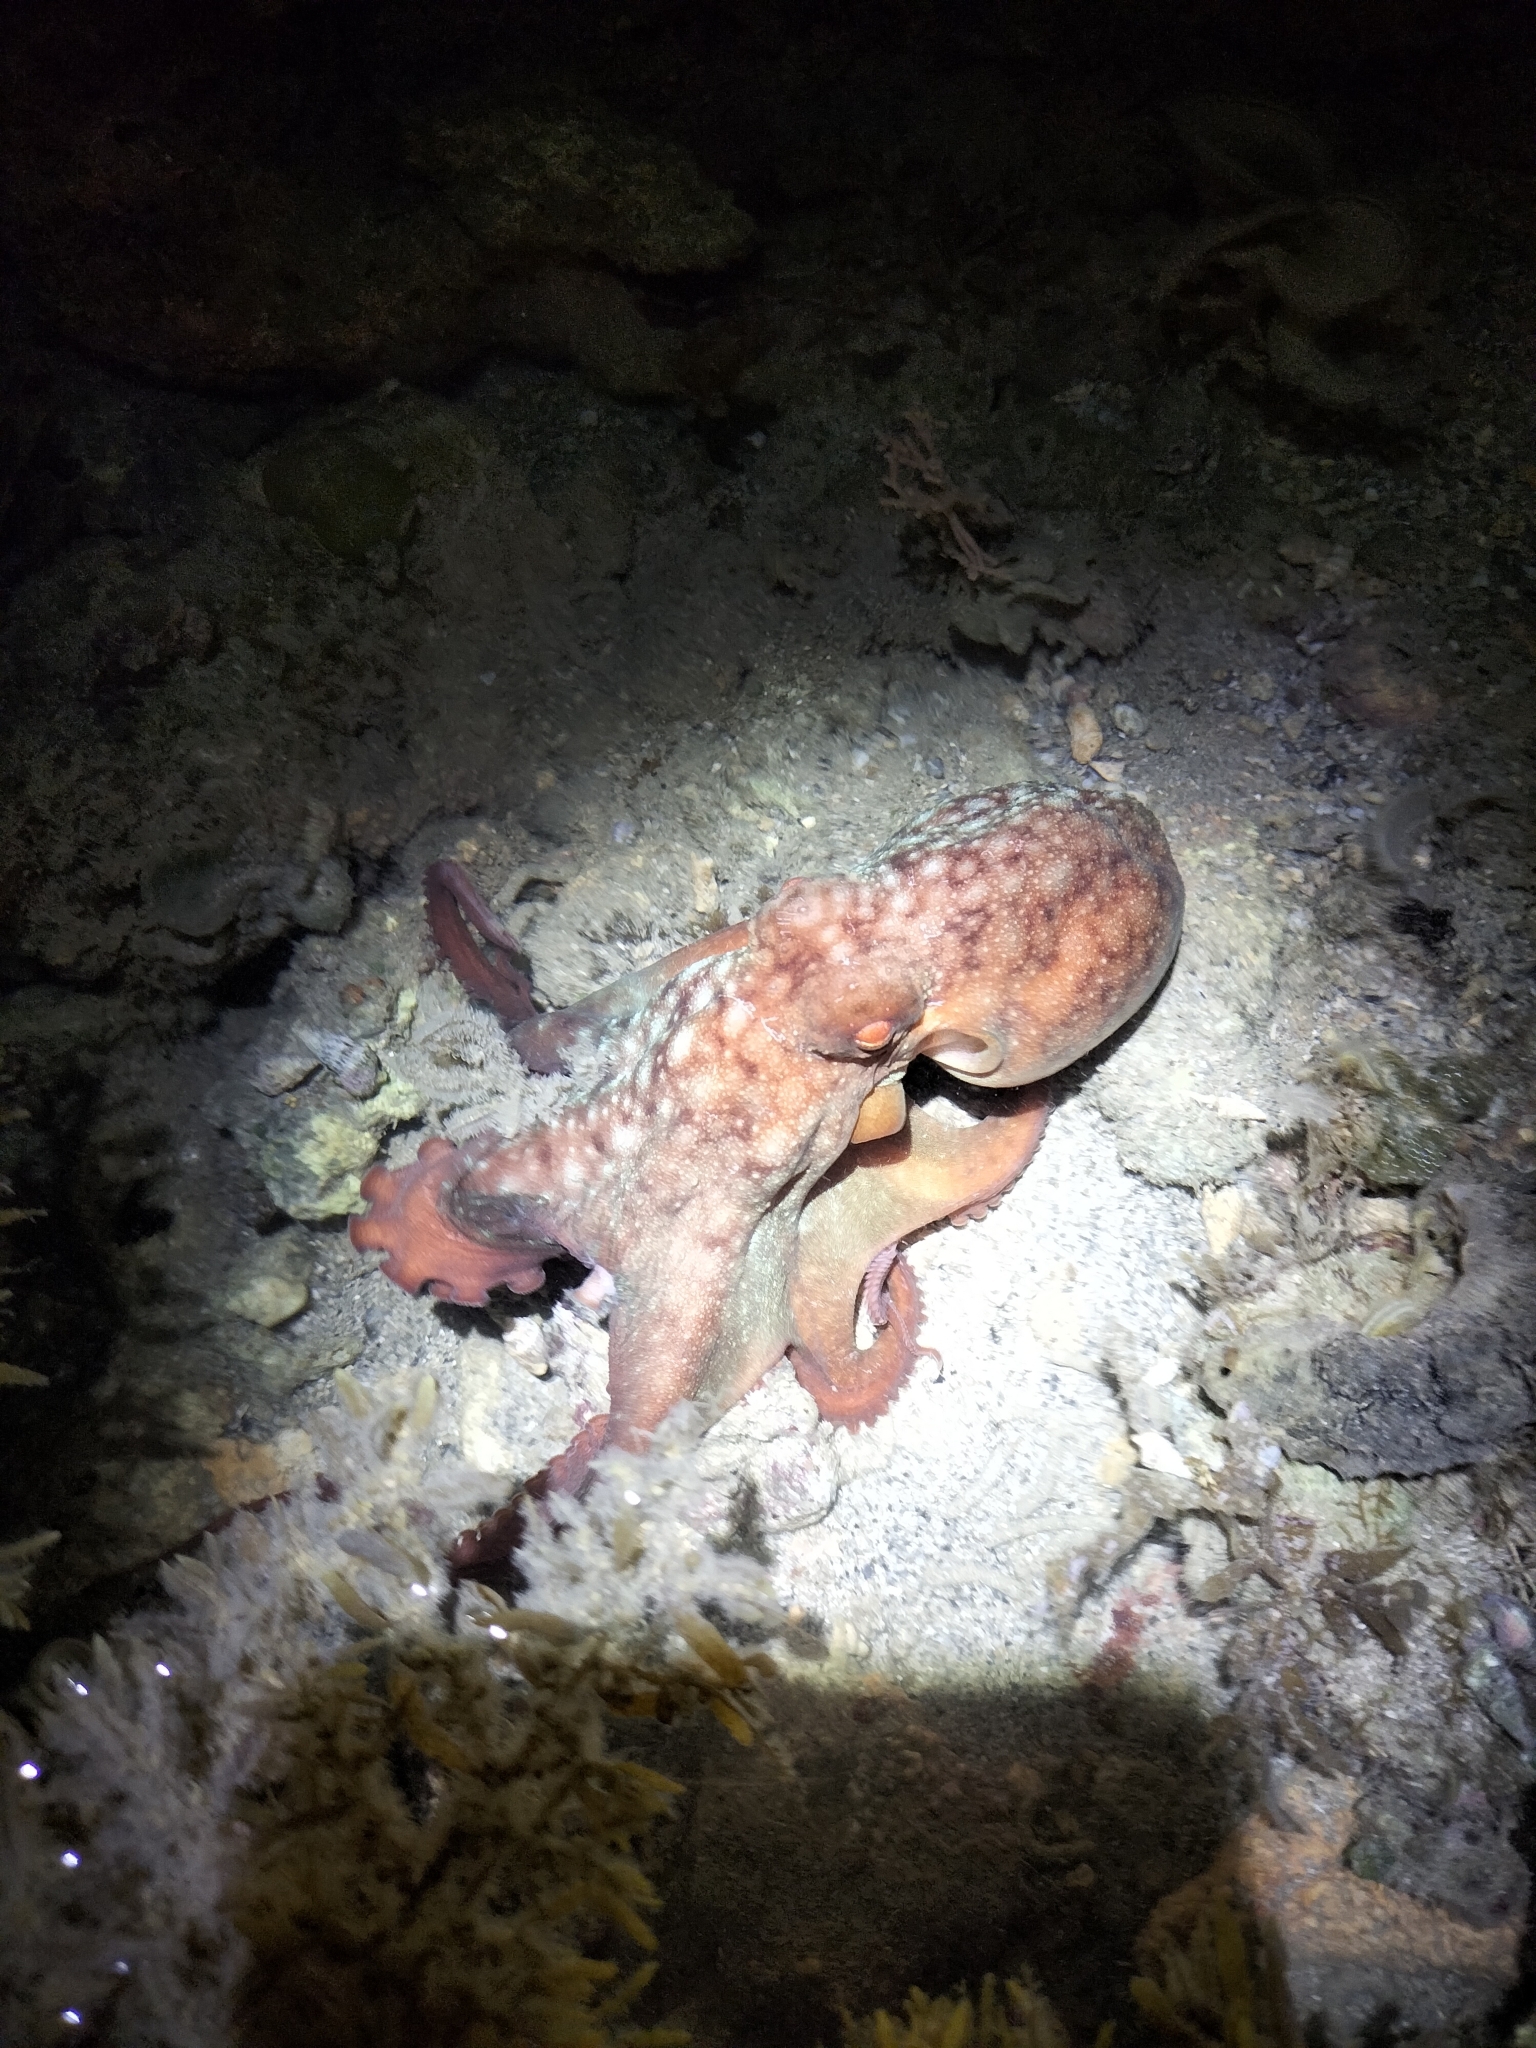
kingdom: Animalia
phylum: Mollusca
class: Cephalopoda
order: Octopoda
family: Octopodidae
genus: Callistoctopus
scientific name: Callistoctopus dierythraeus
